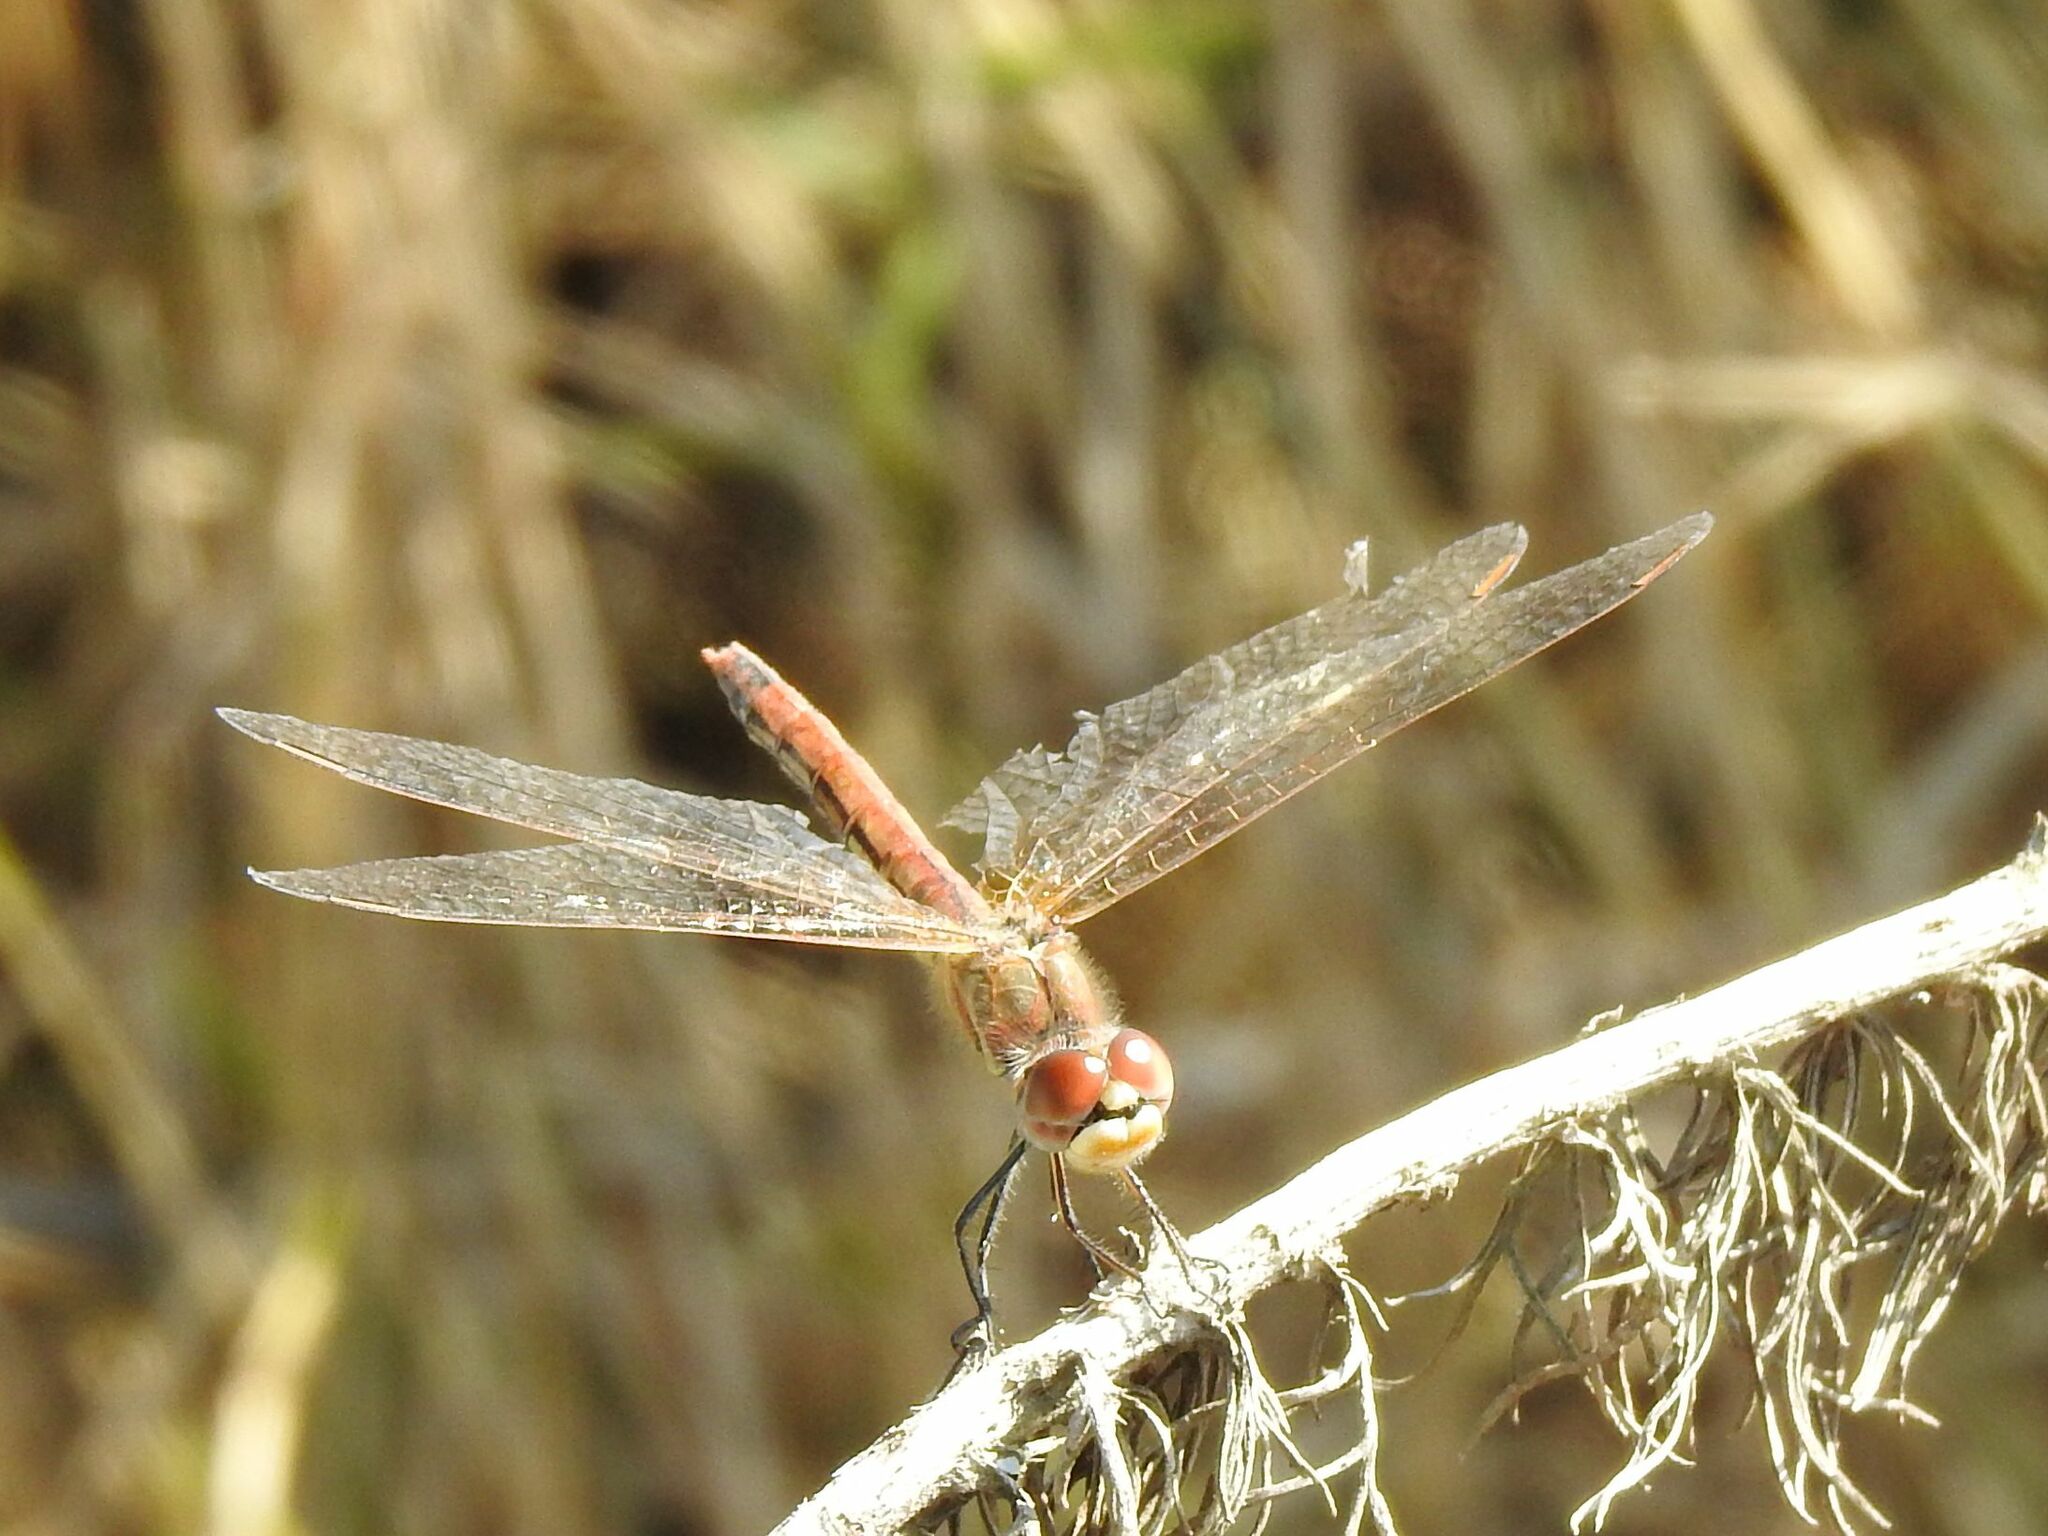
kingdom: Animalia
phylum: Arthropoda
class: Insecta
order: Odonata
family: Libellulidae
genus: Sympetrum
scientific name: Sympetrum fonscolombii
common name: Red-veined darter
